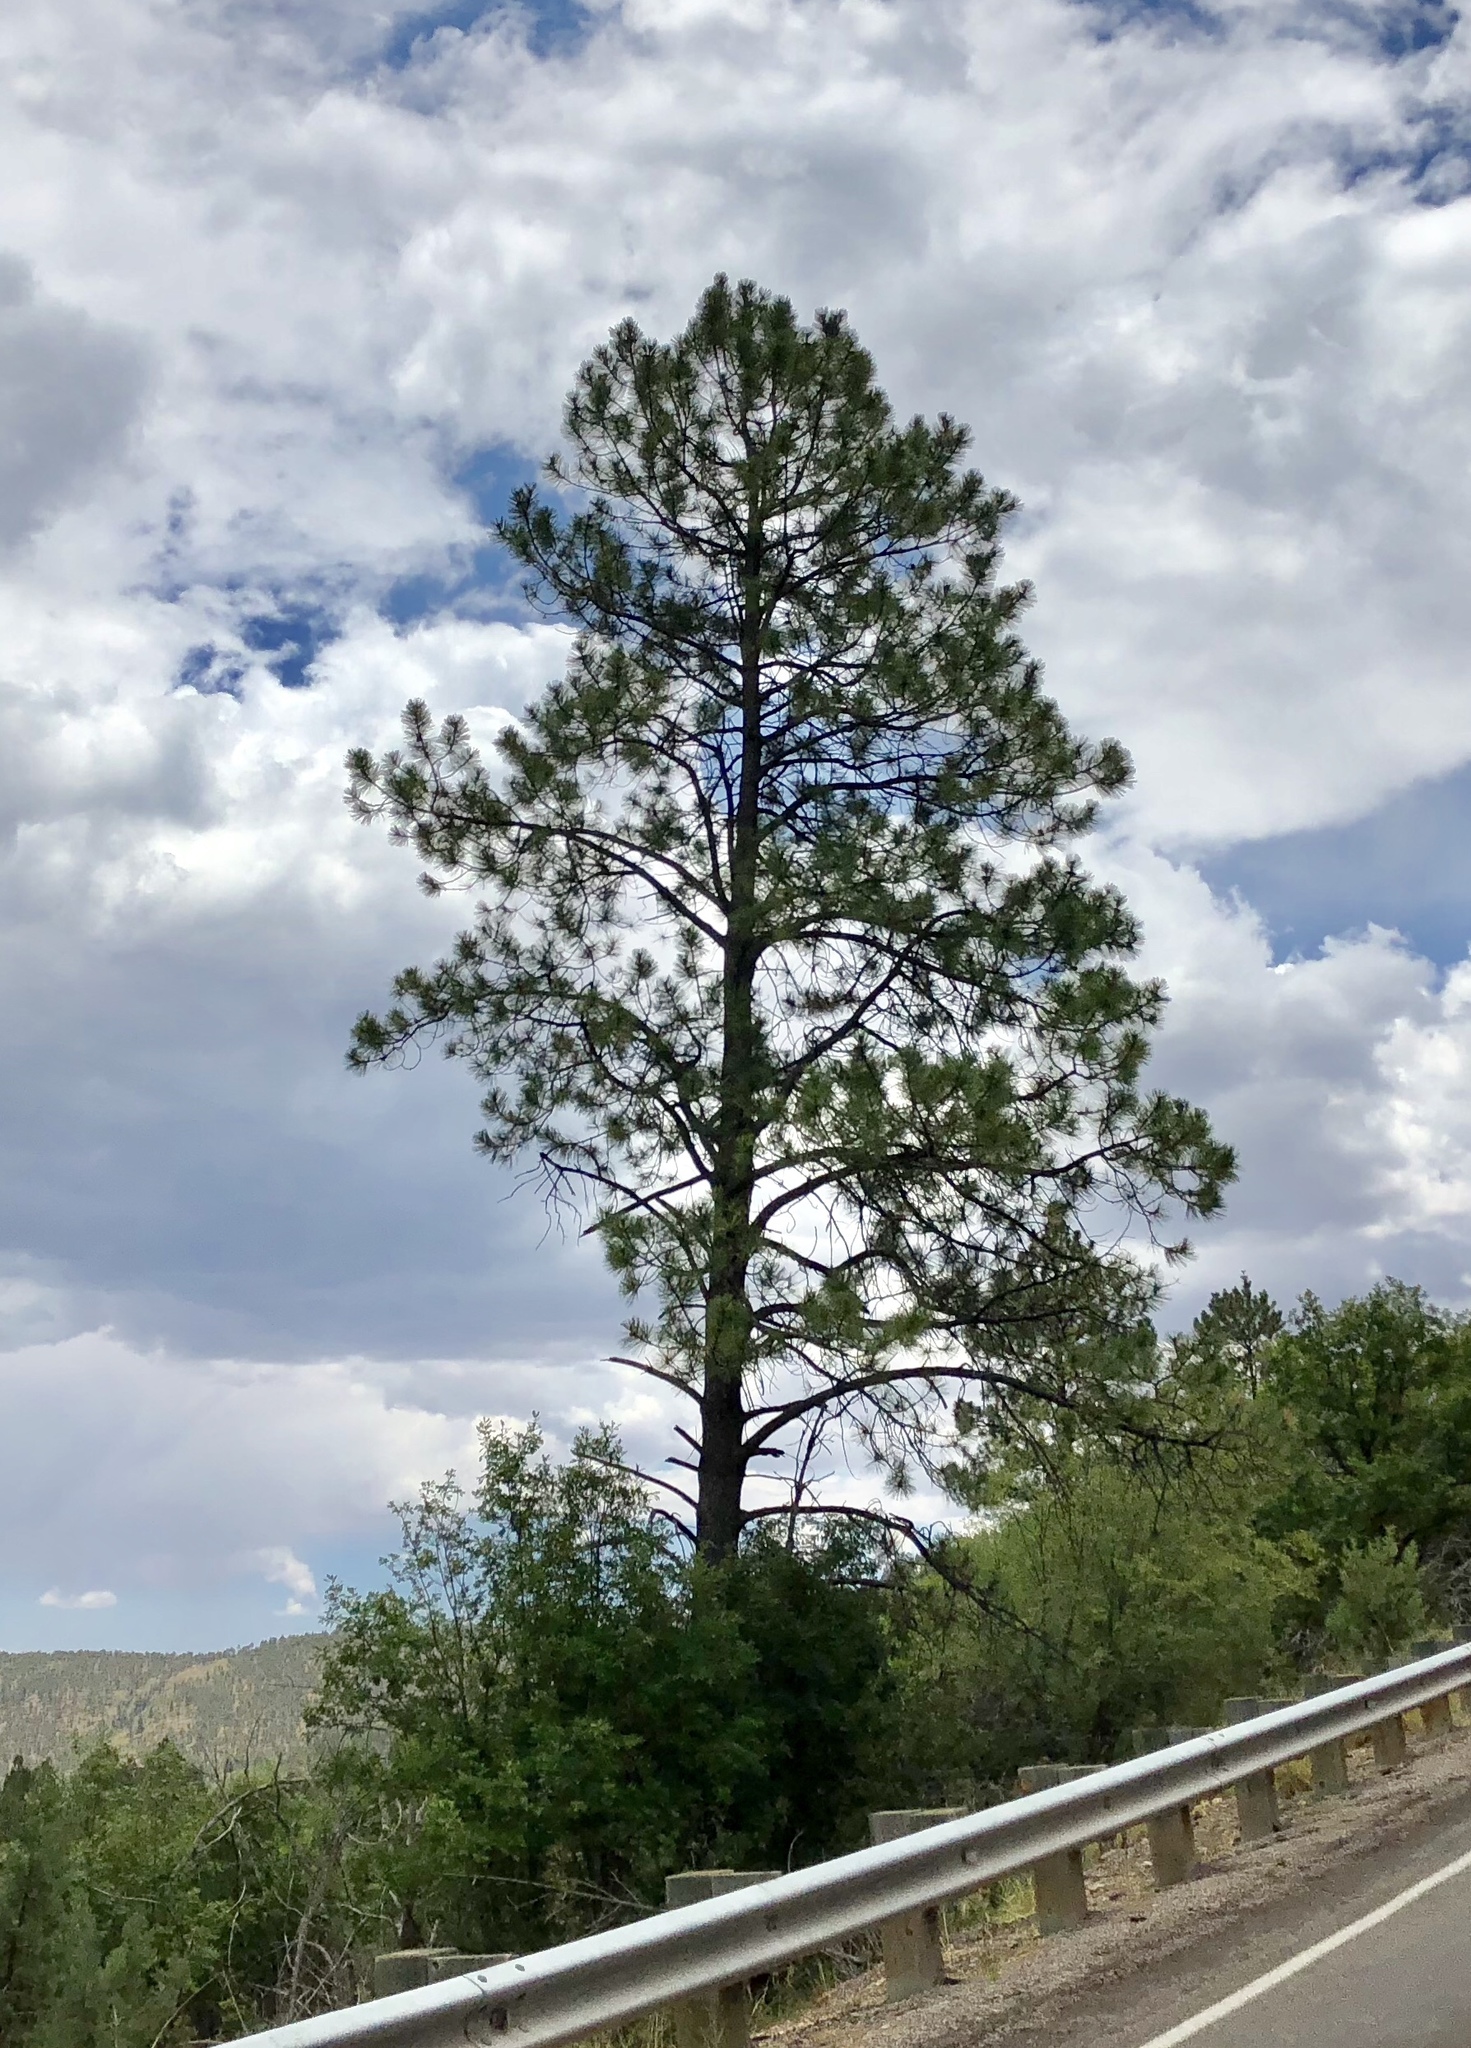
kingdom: Plantae
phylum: Tracheophyta
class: Pinopsida
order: Pinales
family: Pinaceae
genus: Pinus
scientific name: Pinus ponderosa
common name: Western yellow-pine
